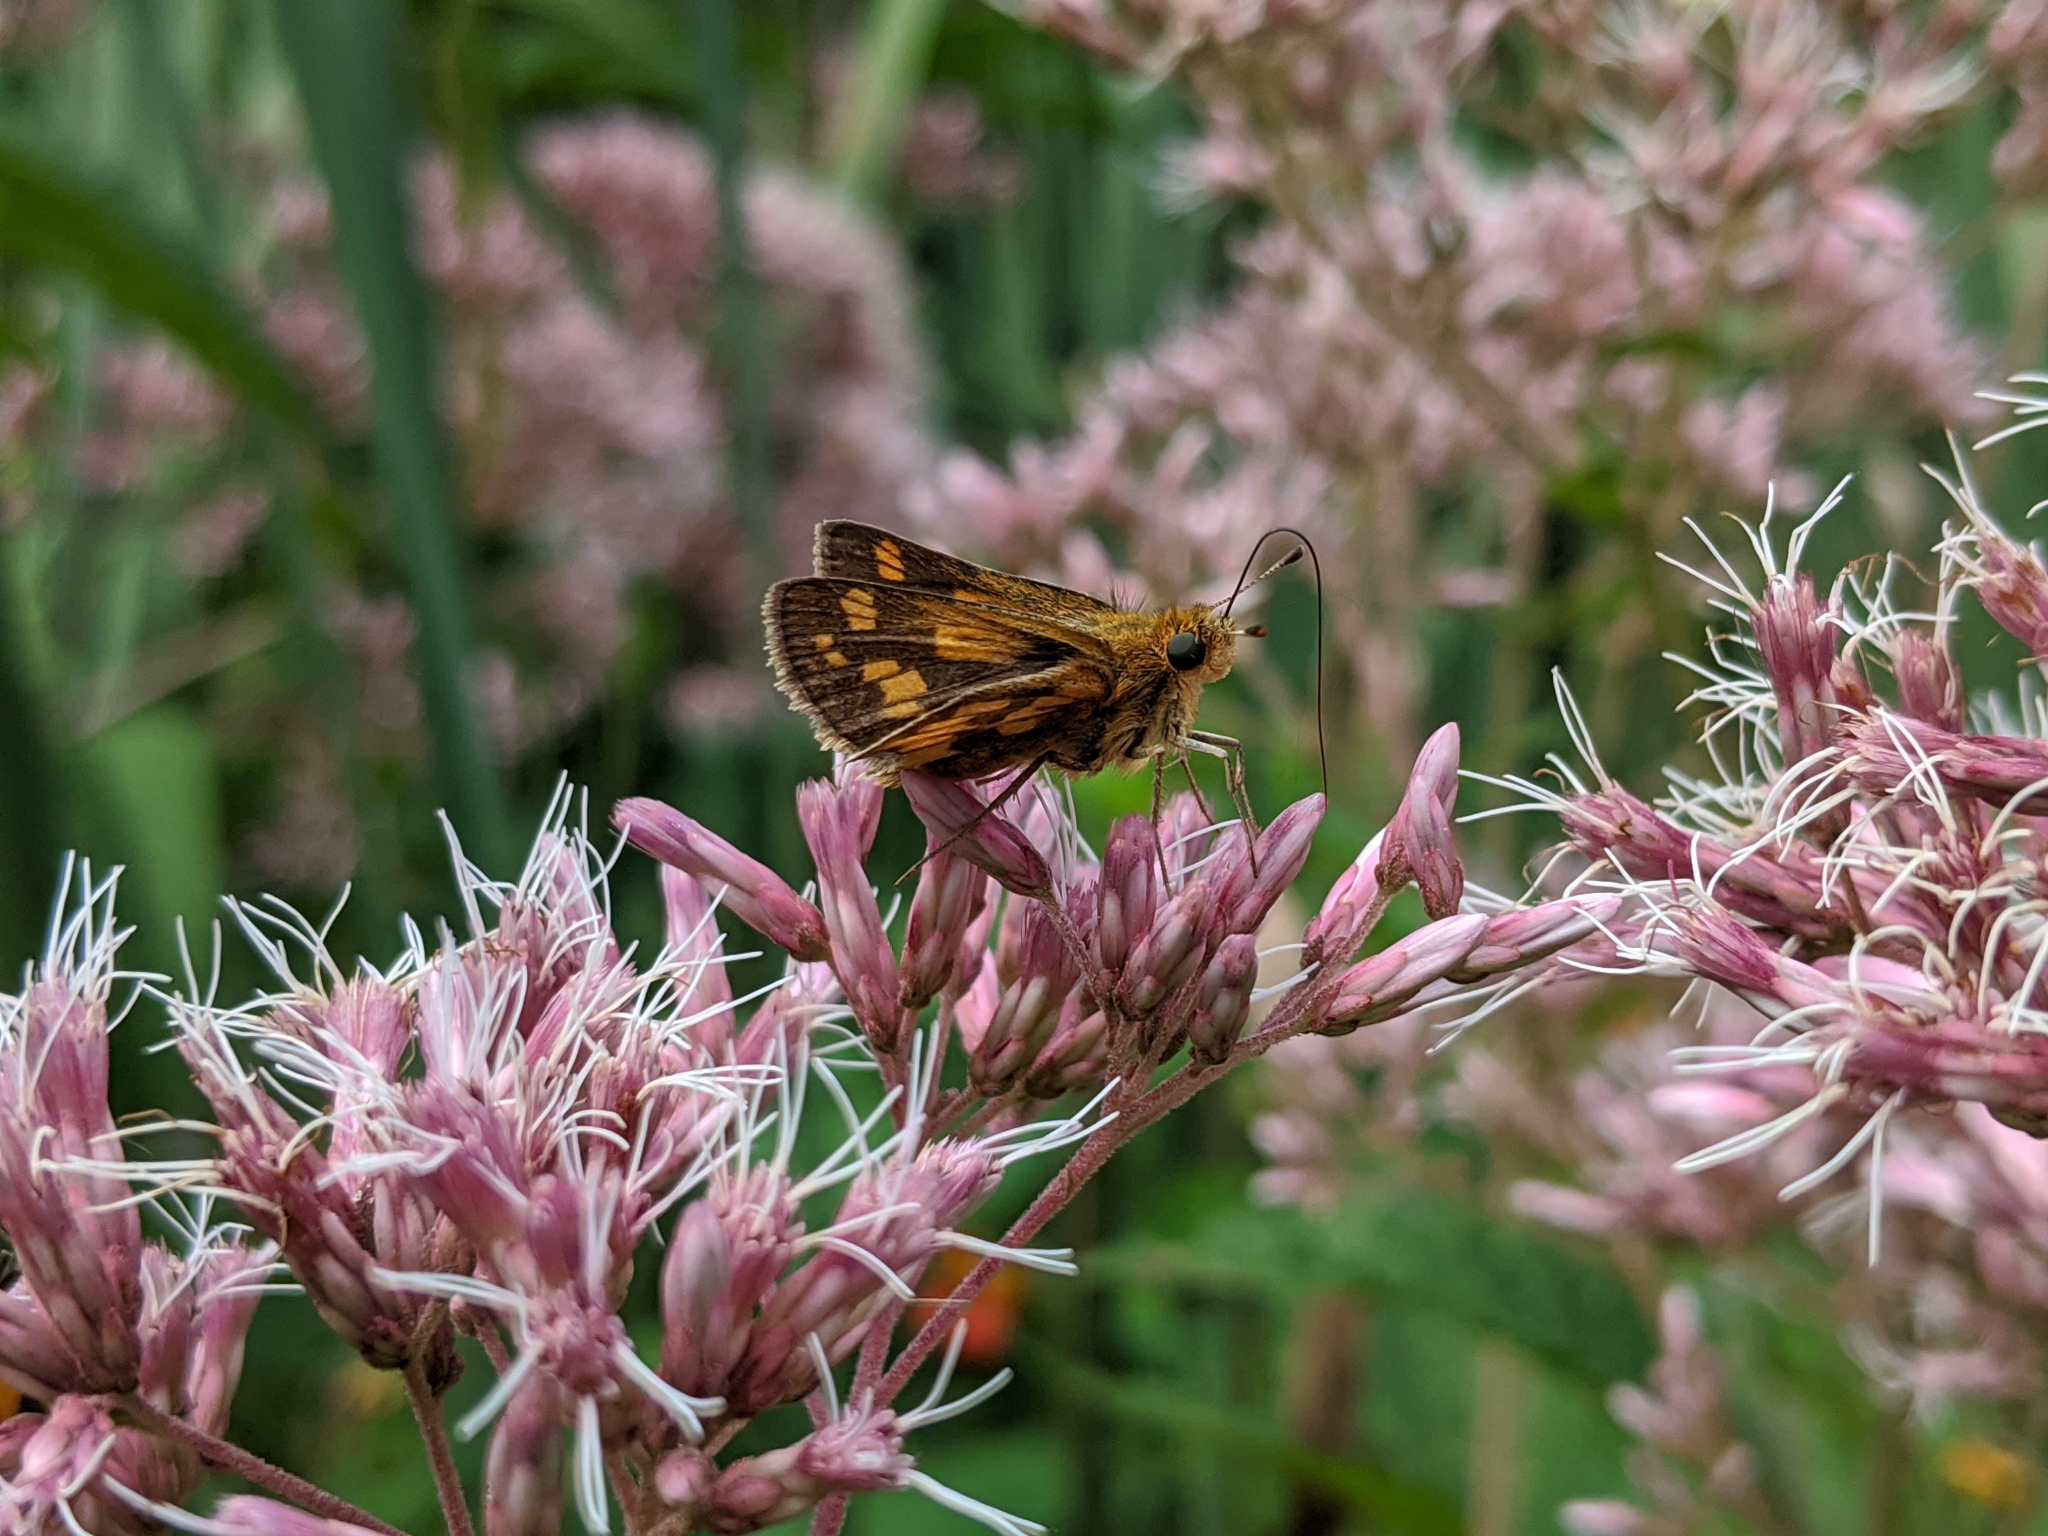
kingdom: Animalia
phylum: Arthropoda
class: Insecta
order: Lepidoptera
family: Hesperiidae
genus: Polites
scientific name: Polites coras
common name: Peck's skipper
